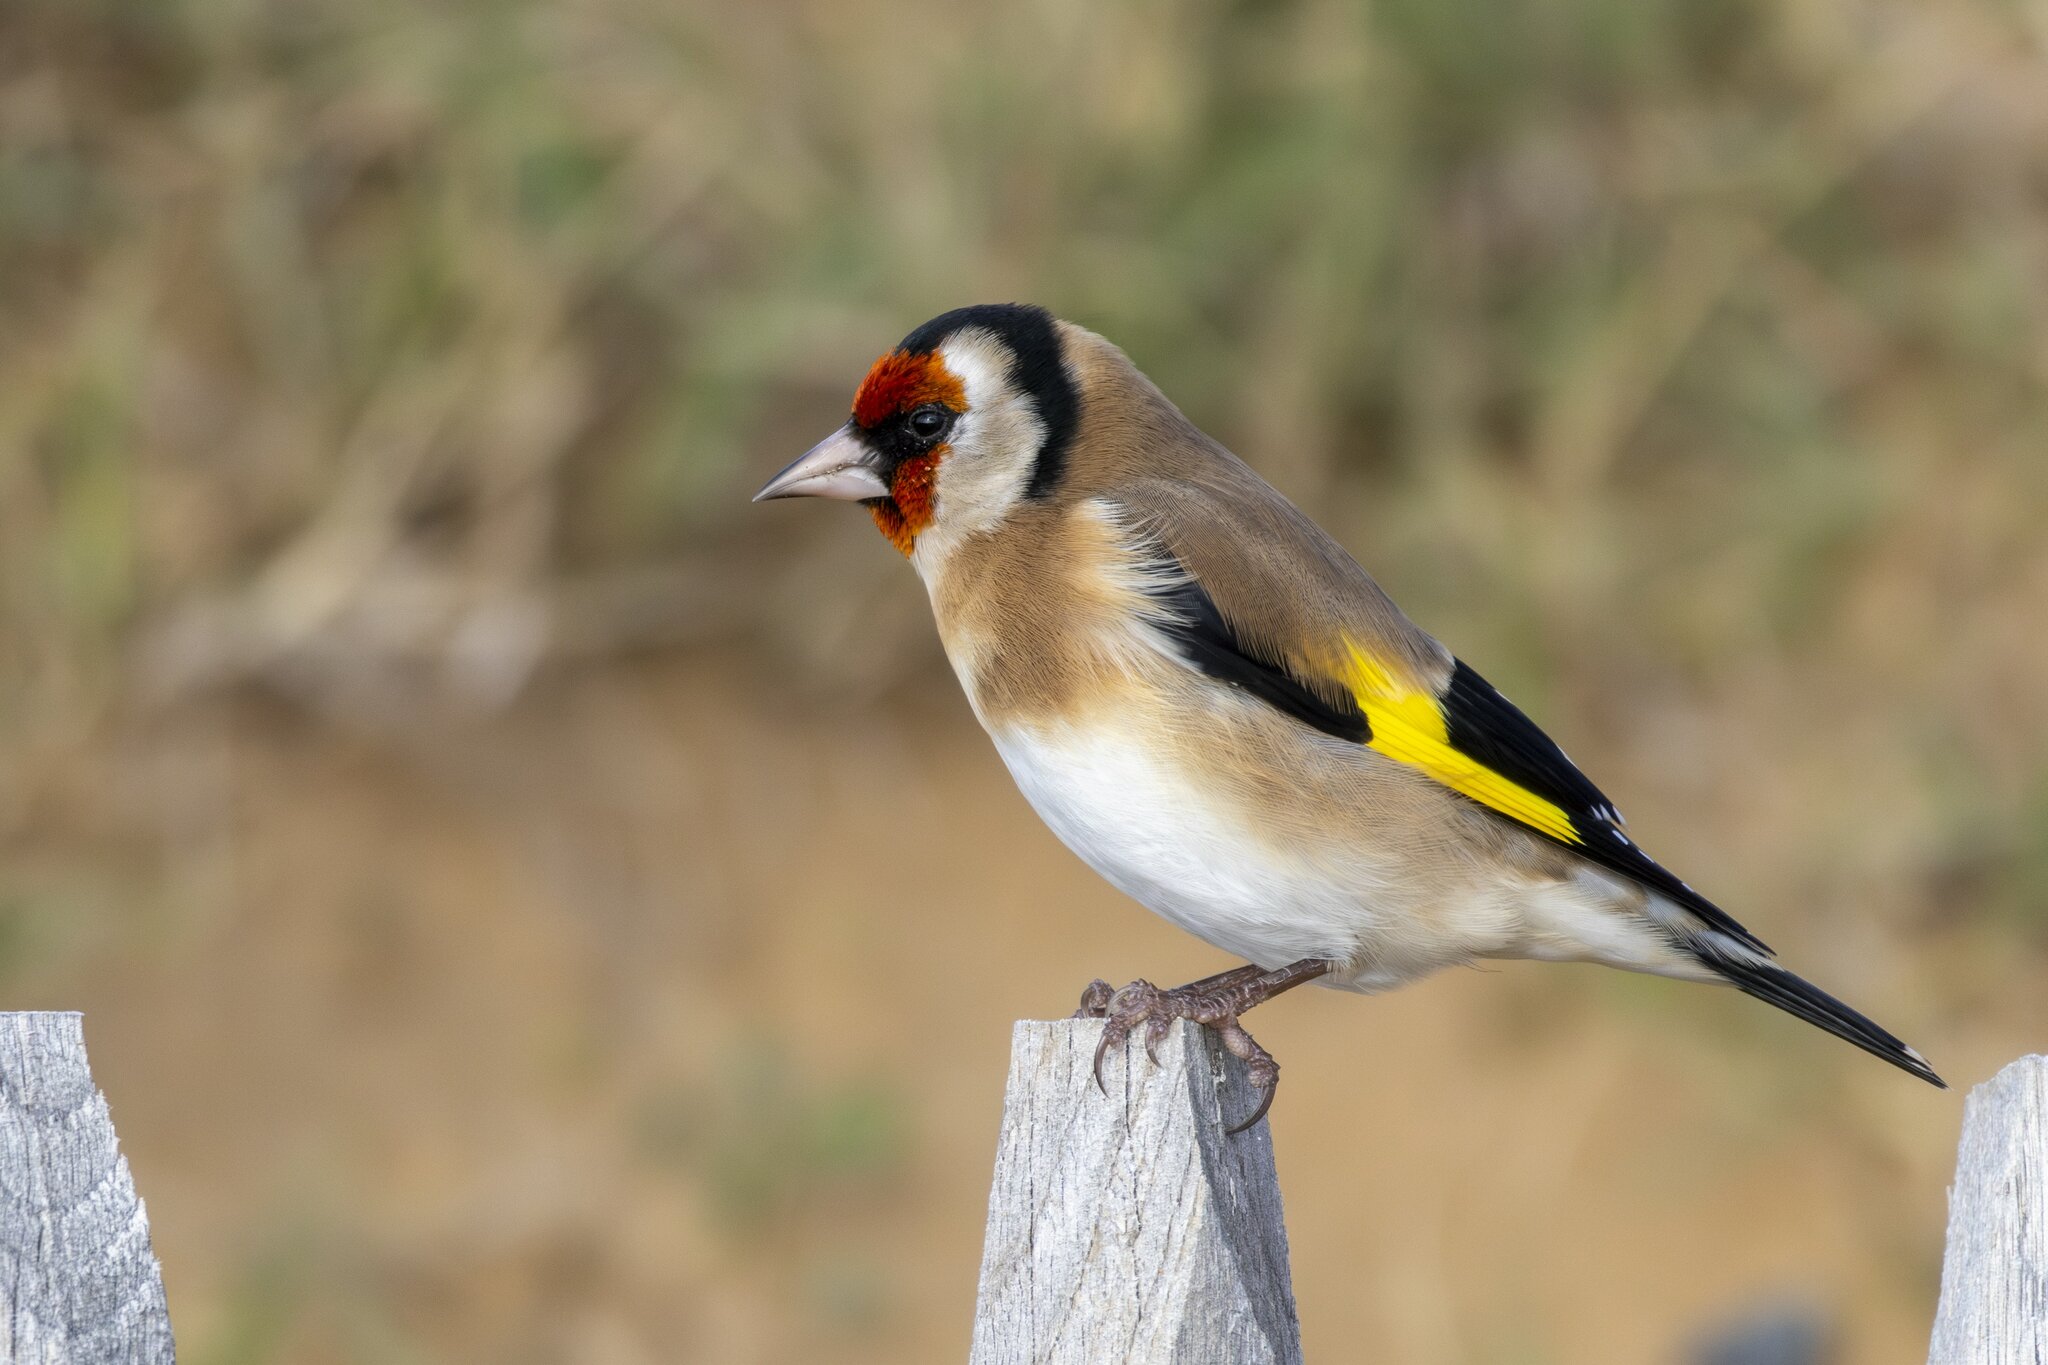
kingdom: Animalia
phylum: Chordata
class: Aves
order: Passeriformes
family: Fringillidae
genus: Carduelis
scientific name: Carduelis carduelis
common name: European goldfinch
